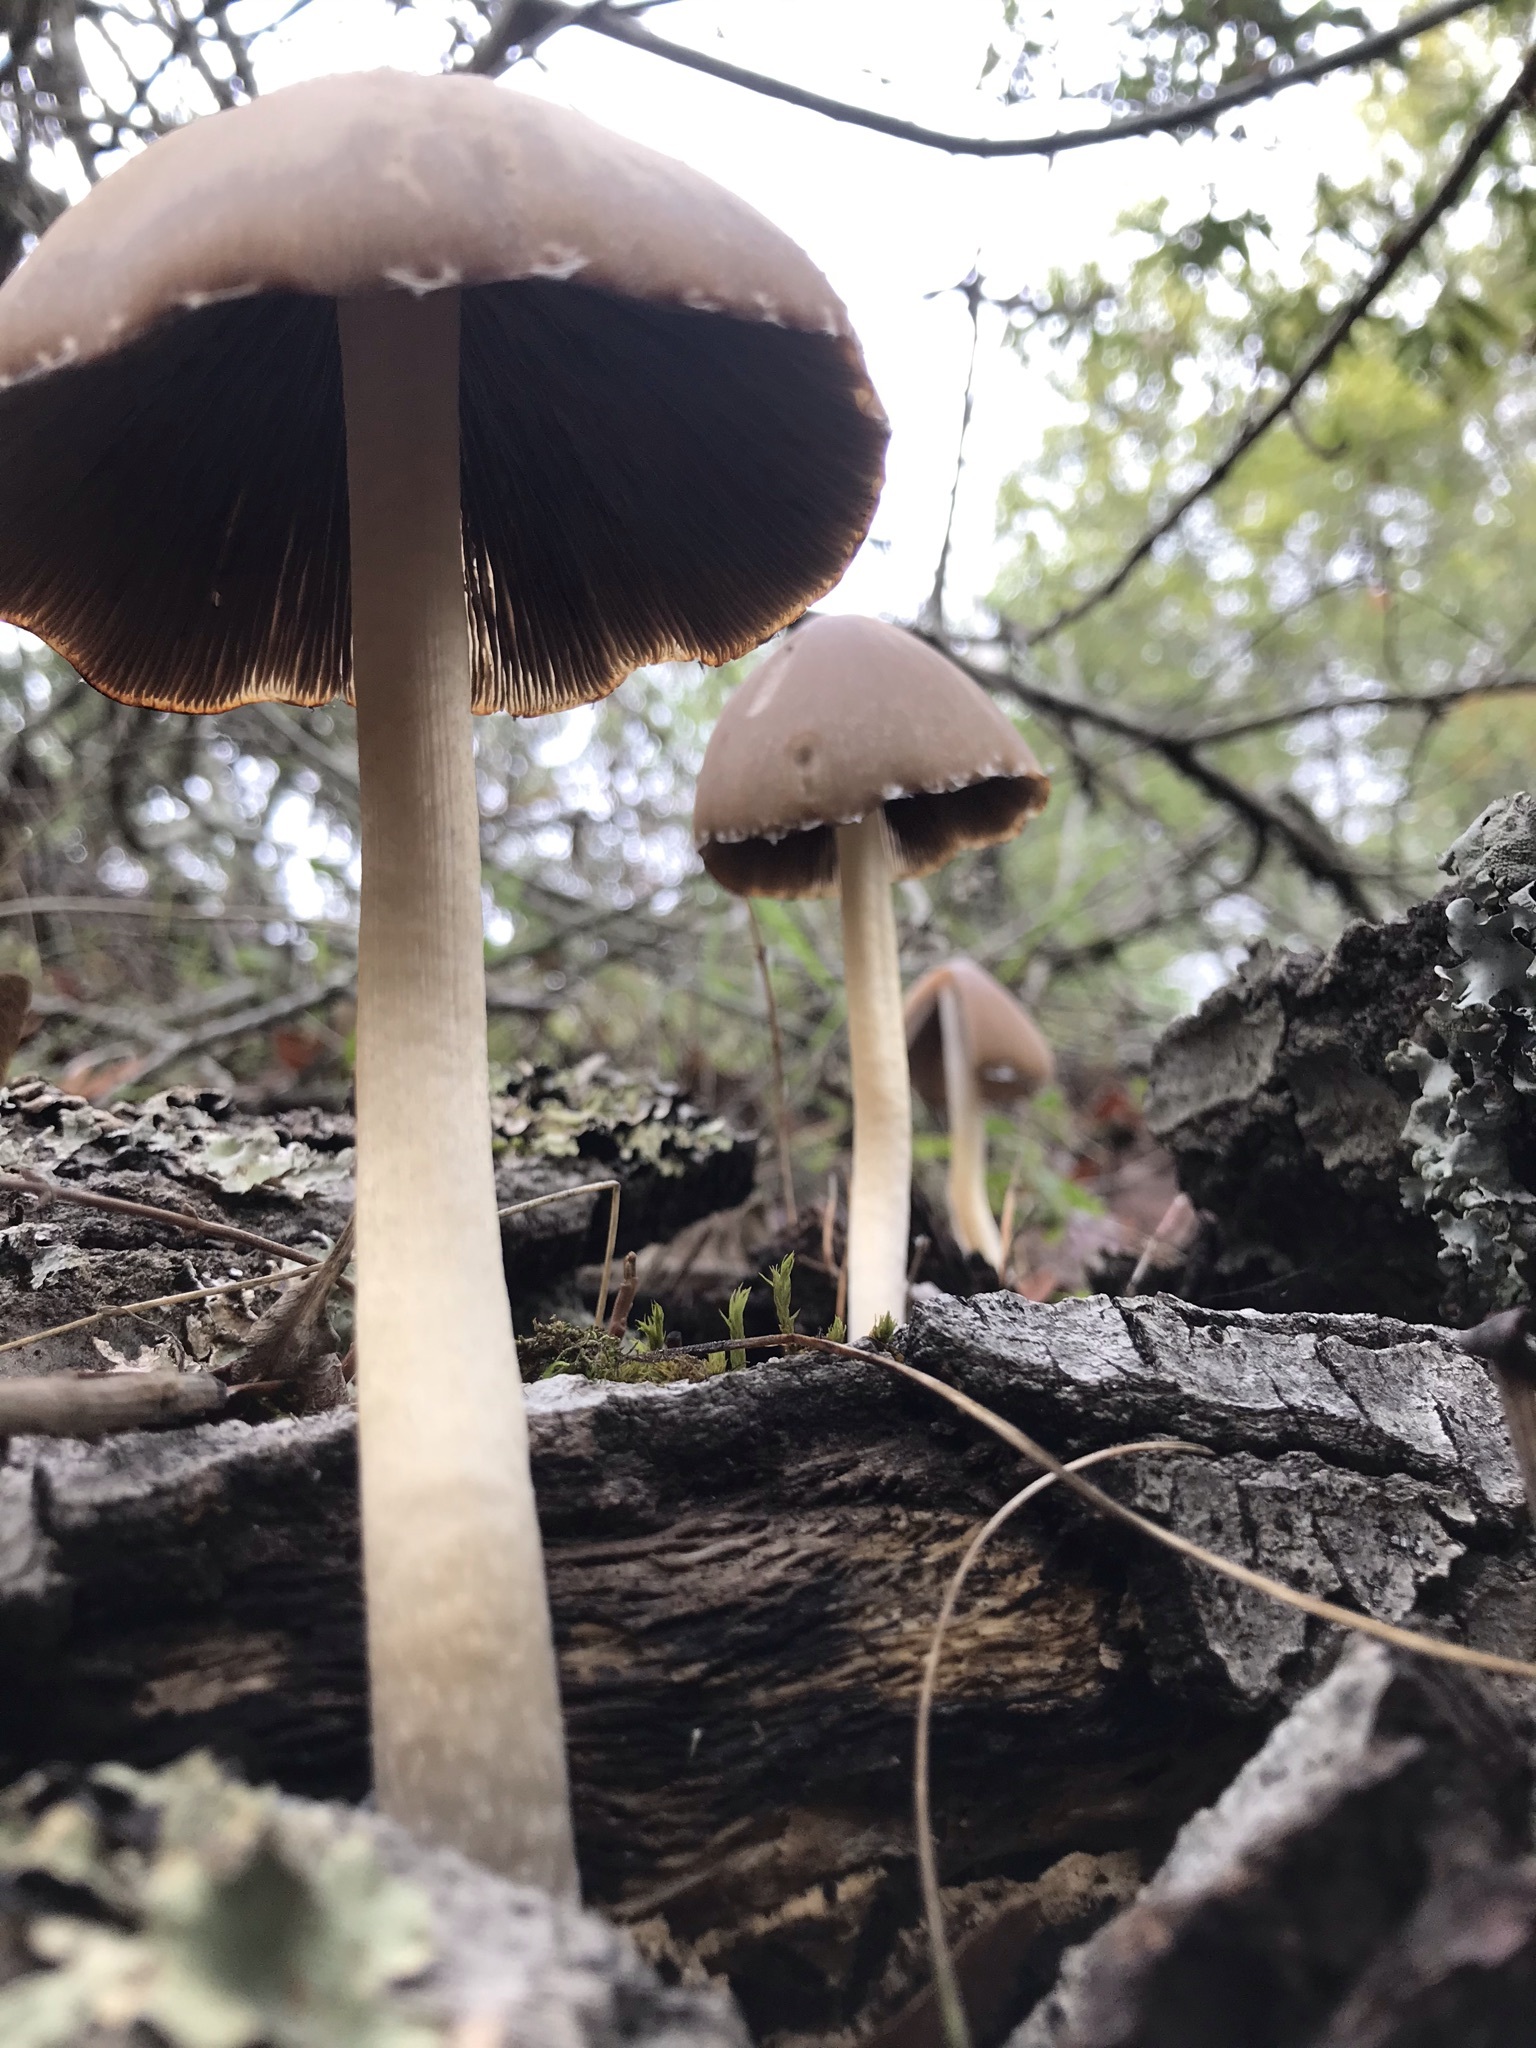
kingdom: Fungi
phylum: Basidiomycota
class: Agaricomycetes
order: Agaricales
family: Psathyrellaceae
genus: Psathyrella
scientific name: Psathyrella longipes
